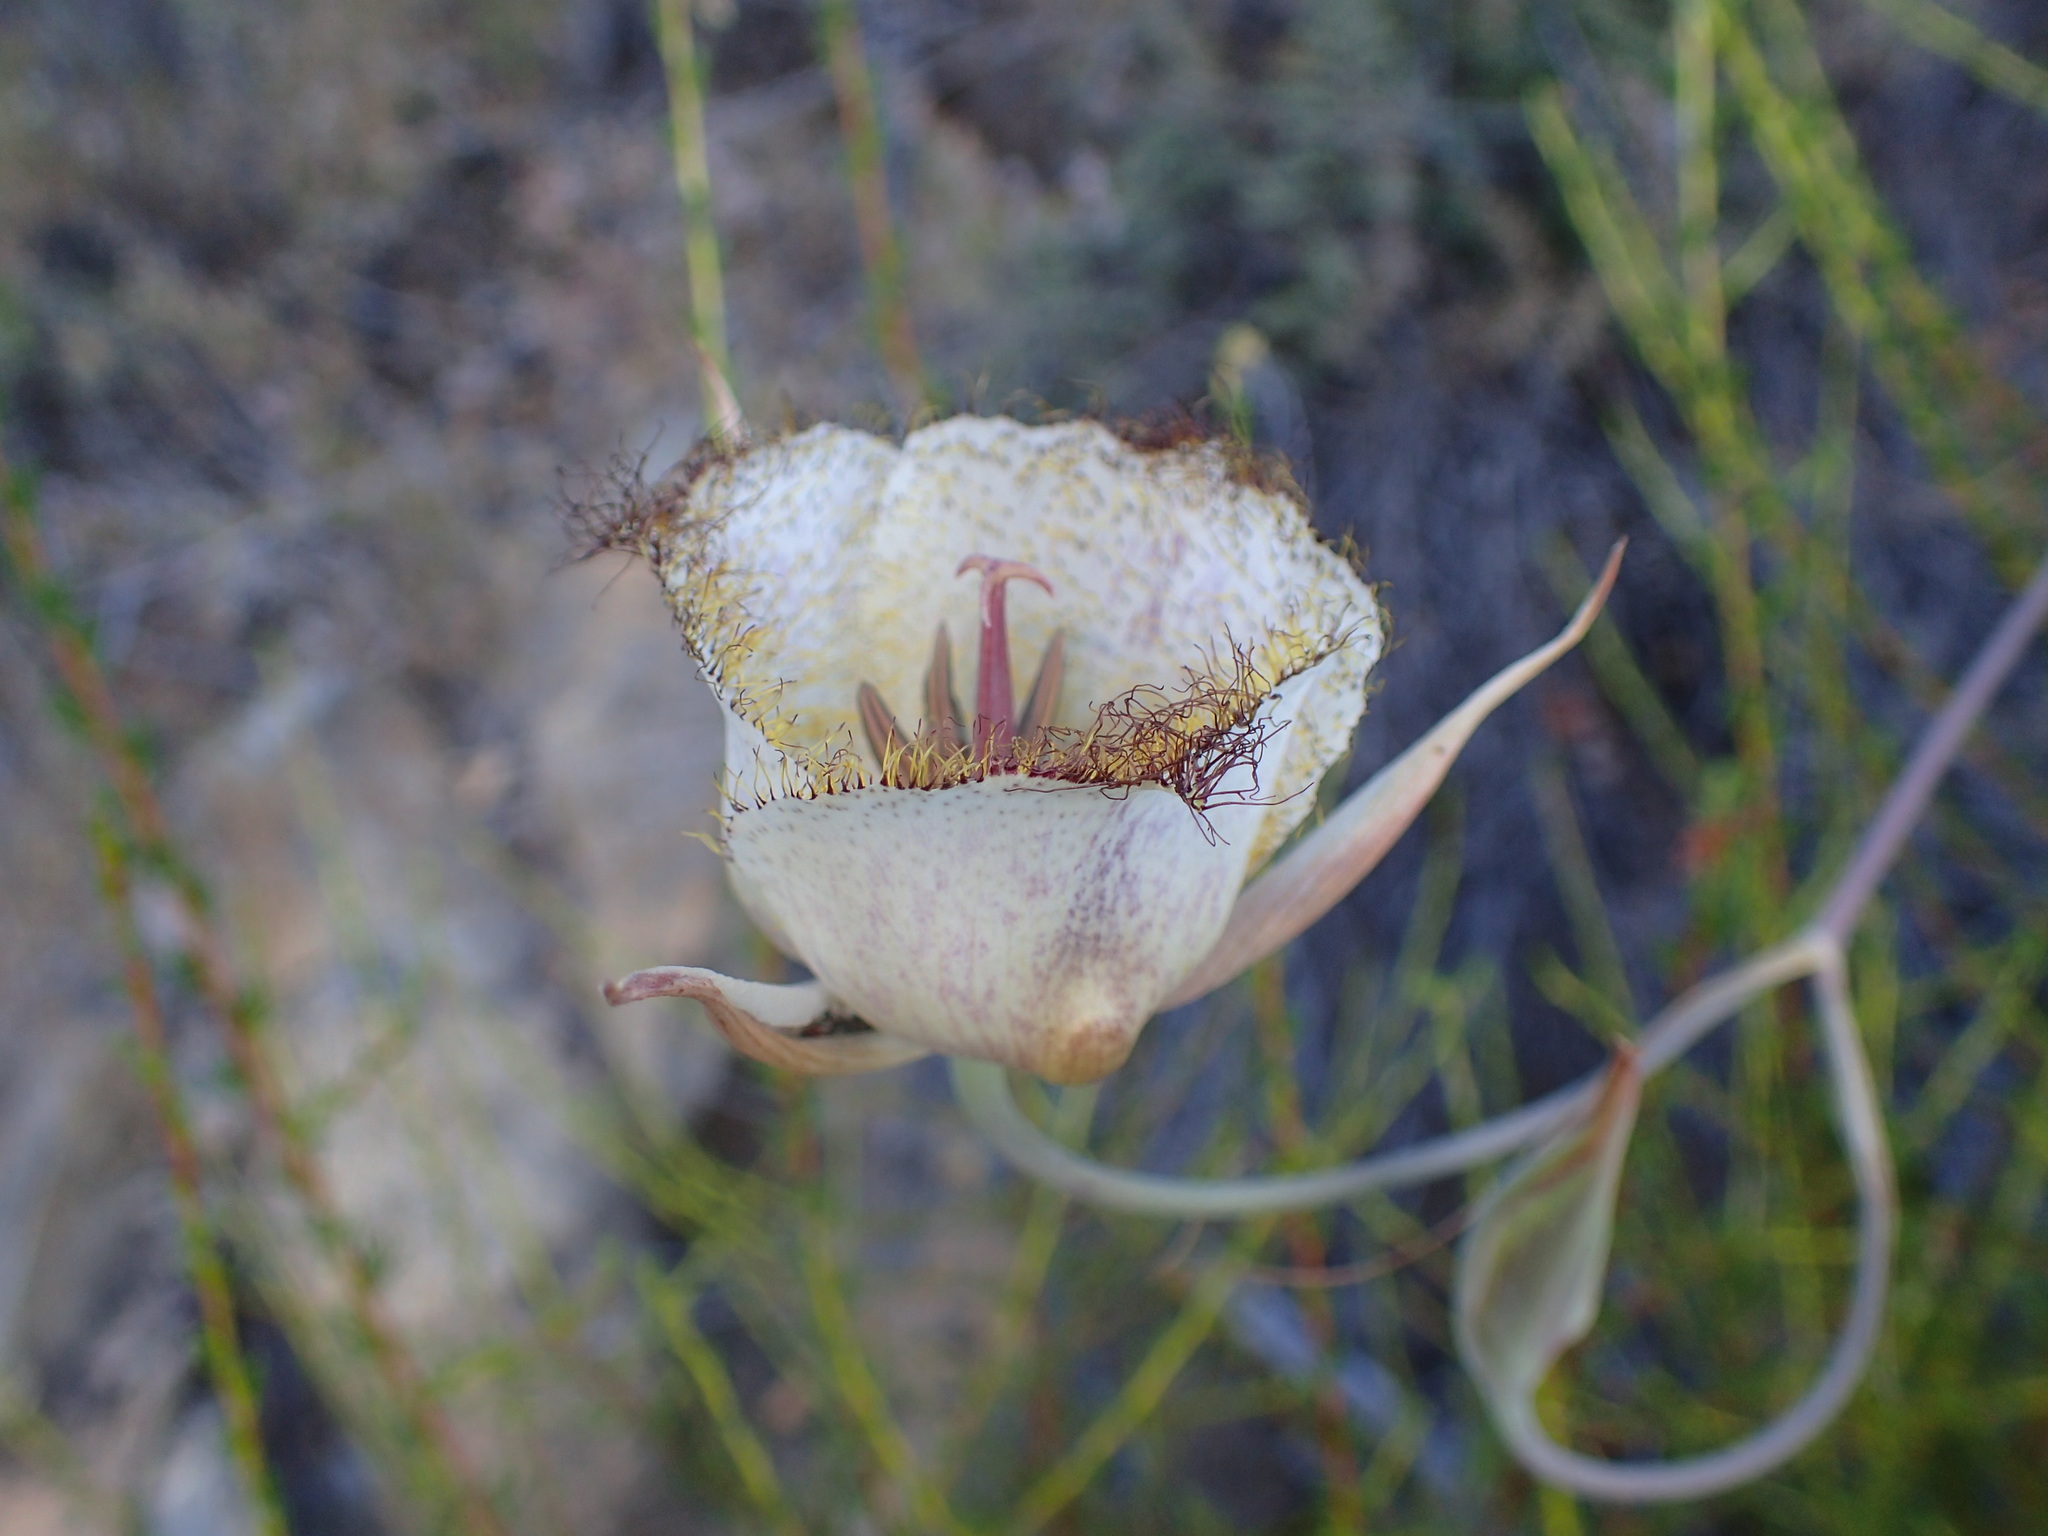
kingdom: Plantae
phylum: Tracheophyta
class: Liliopsida
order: Liliales
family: Liliaceae
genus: Calochortus
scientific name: Calochortus fimbriatus
